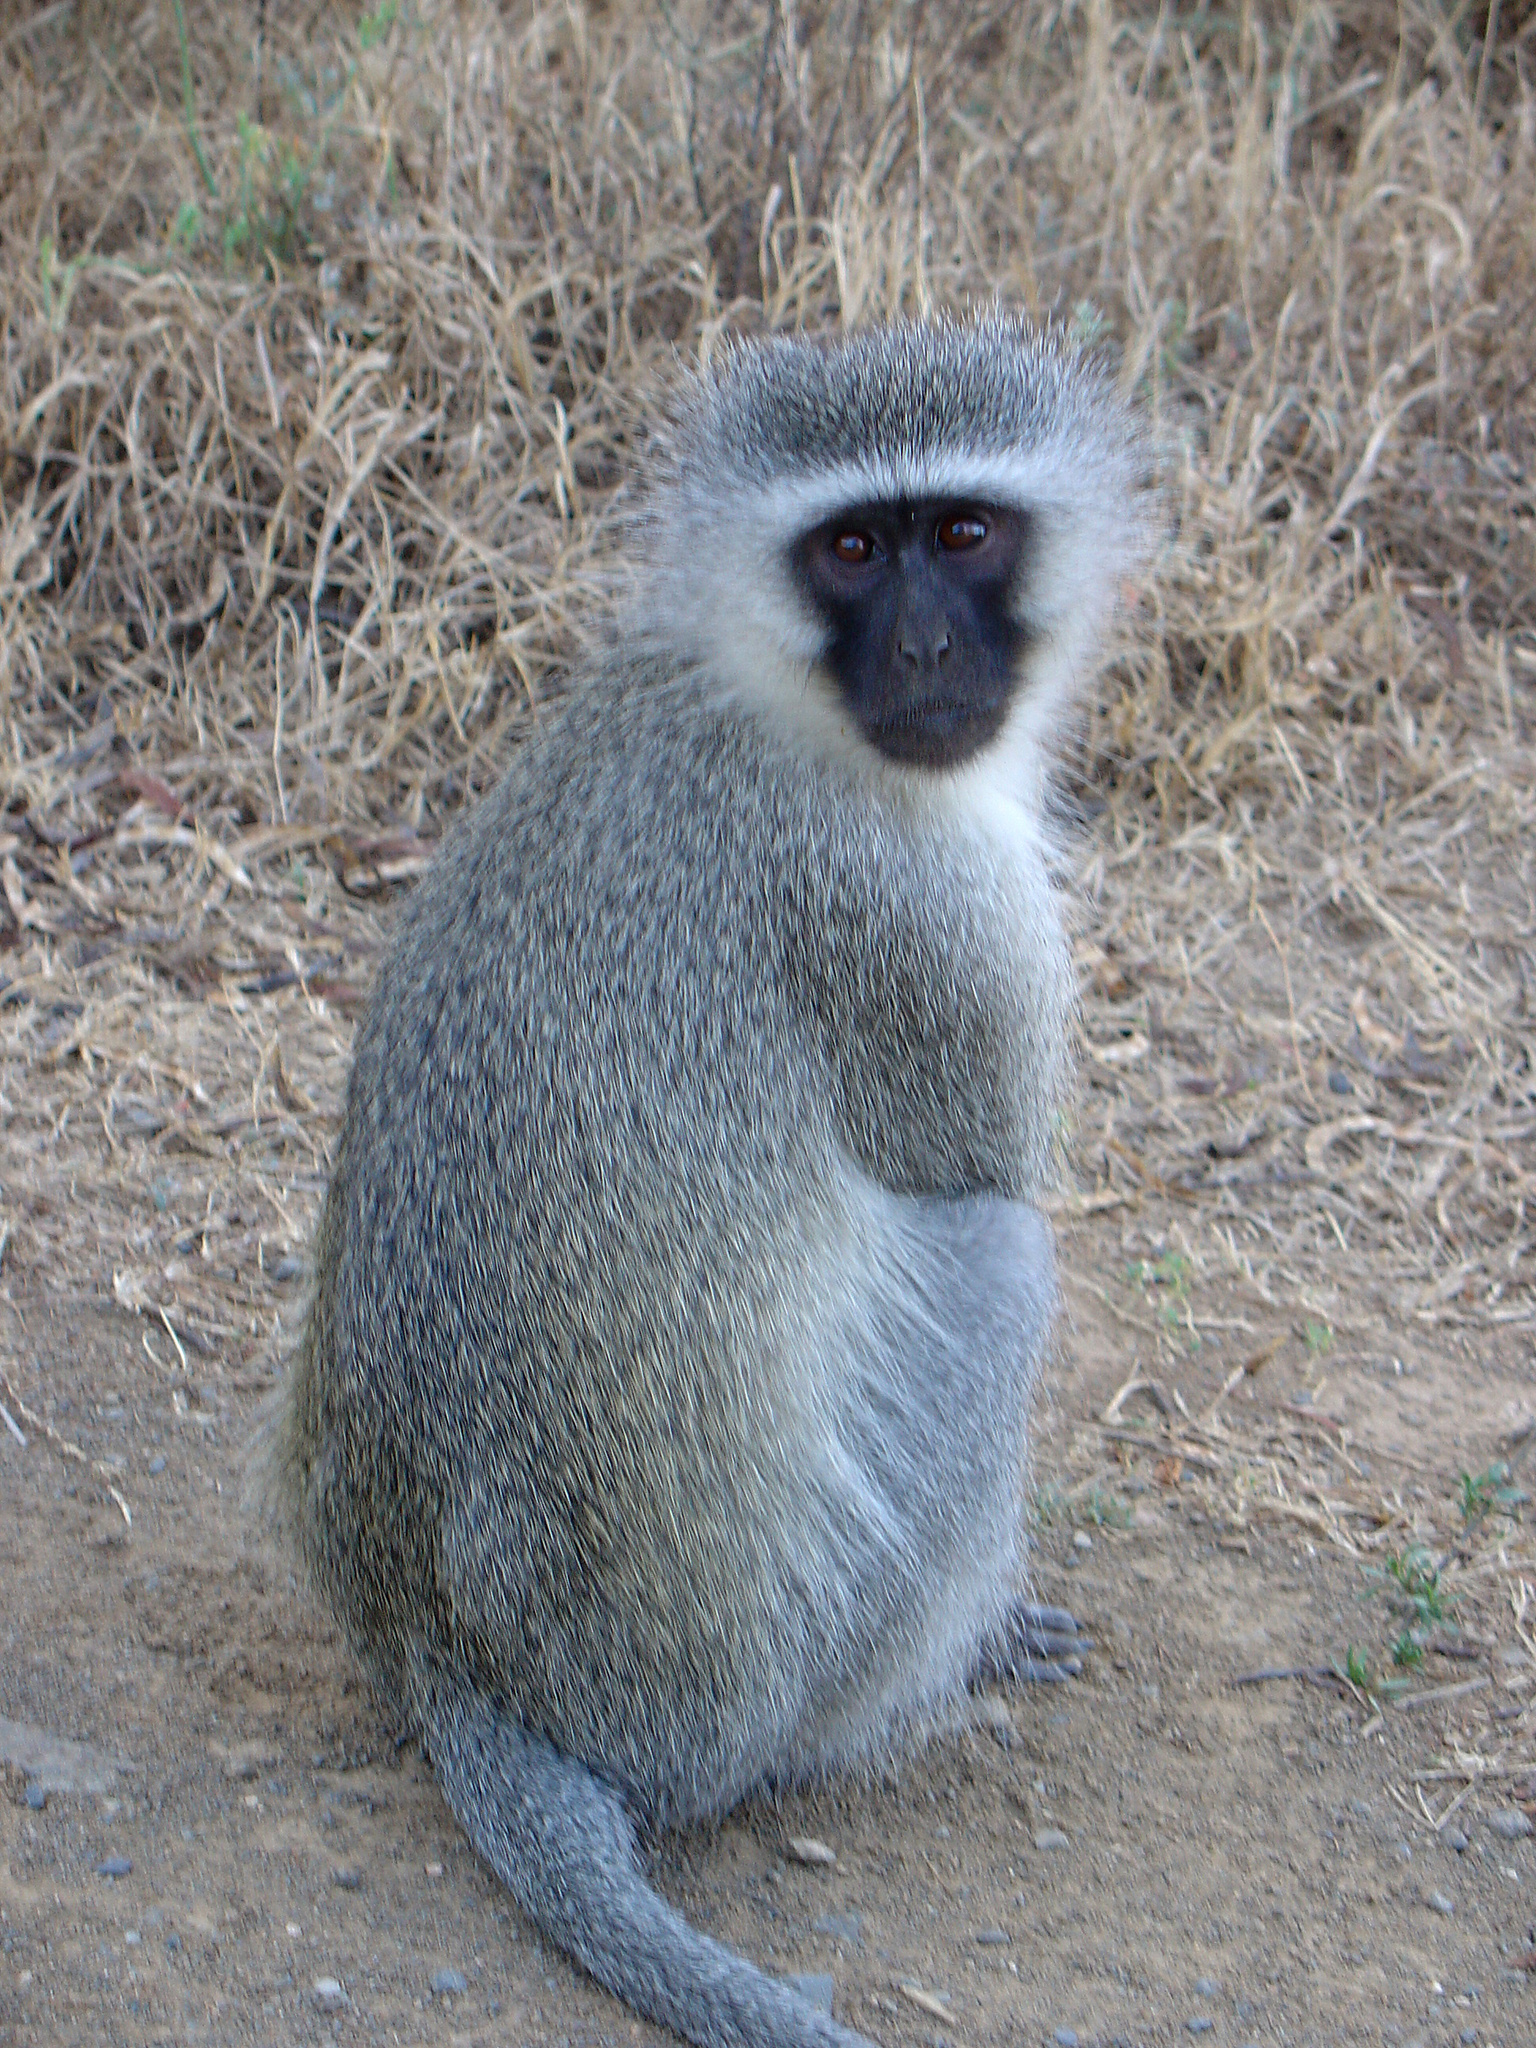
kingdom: Animalia
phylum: Chordata
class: Mammalia
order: Primates
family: Cercopithecidae
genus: Chlorocebus
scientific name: Chlorocebus pygerythrus
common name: Vervet monkey
